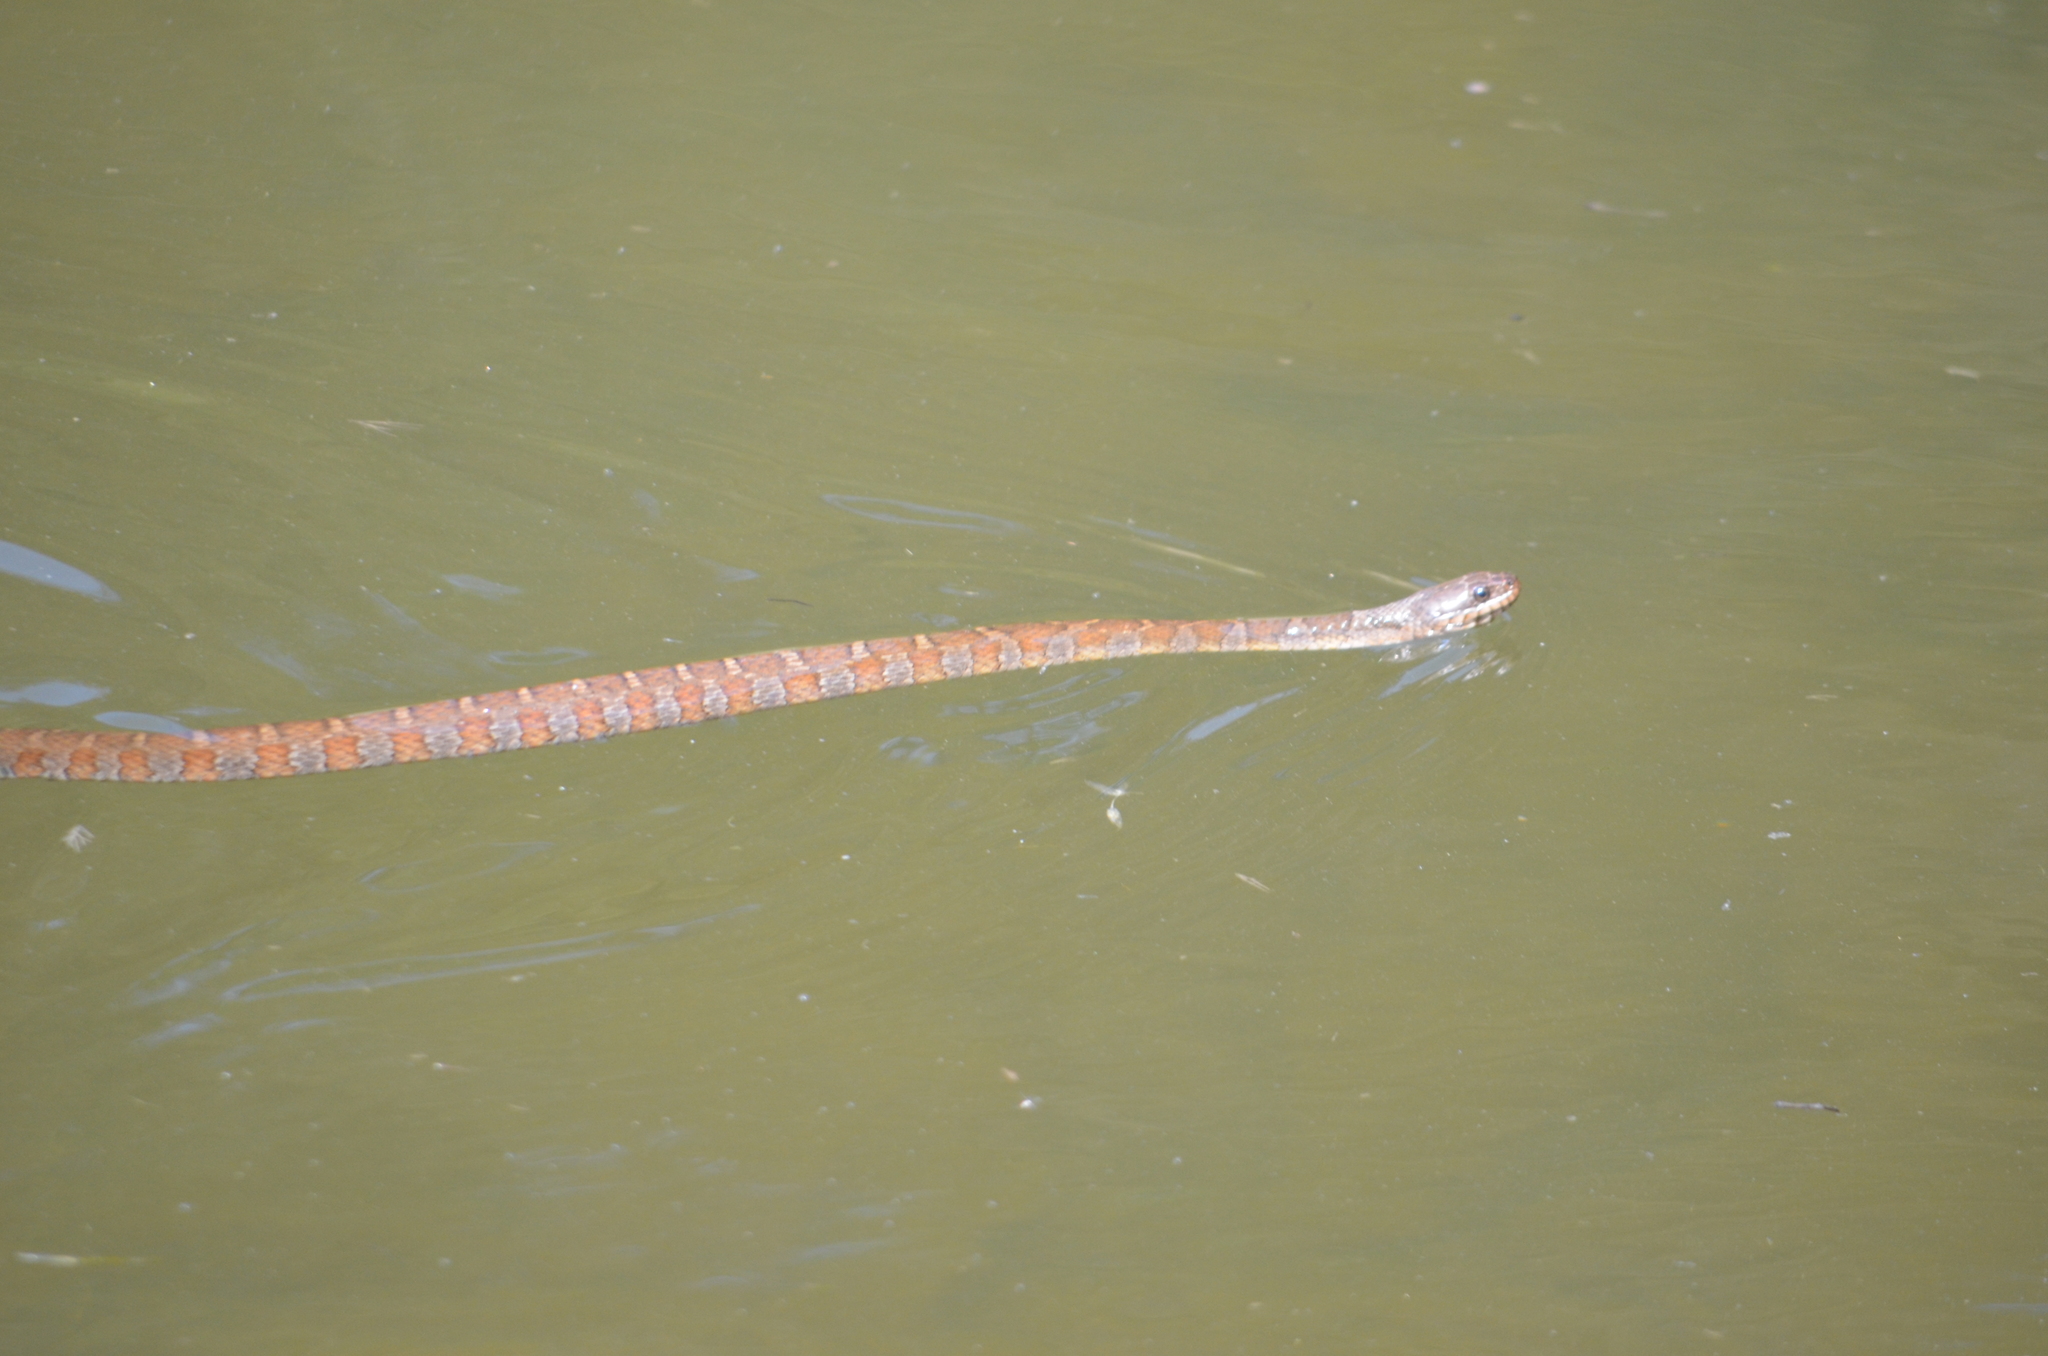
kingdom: Animalia
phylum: Chordata
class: Squamata
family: Colubridae
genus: Nerodia
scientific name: Nerodia sipedon
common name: Northern water snake
